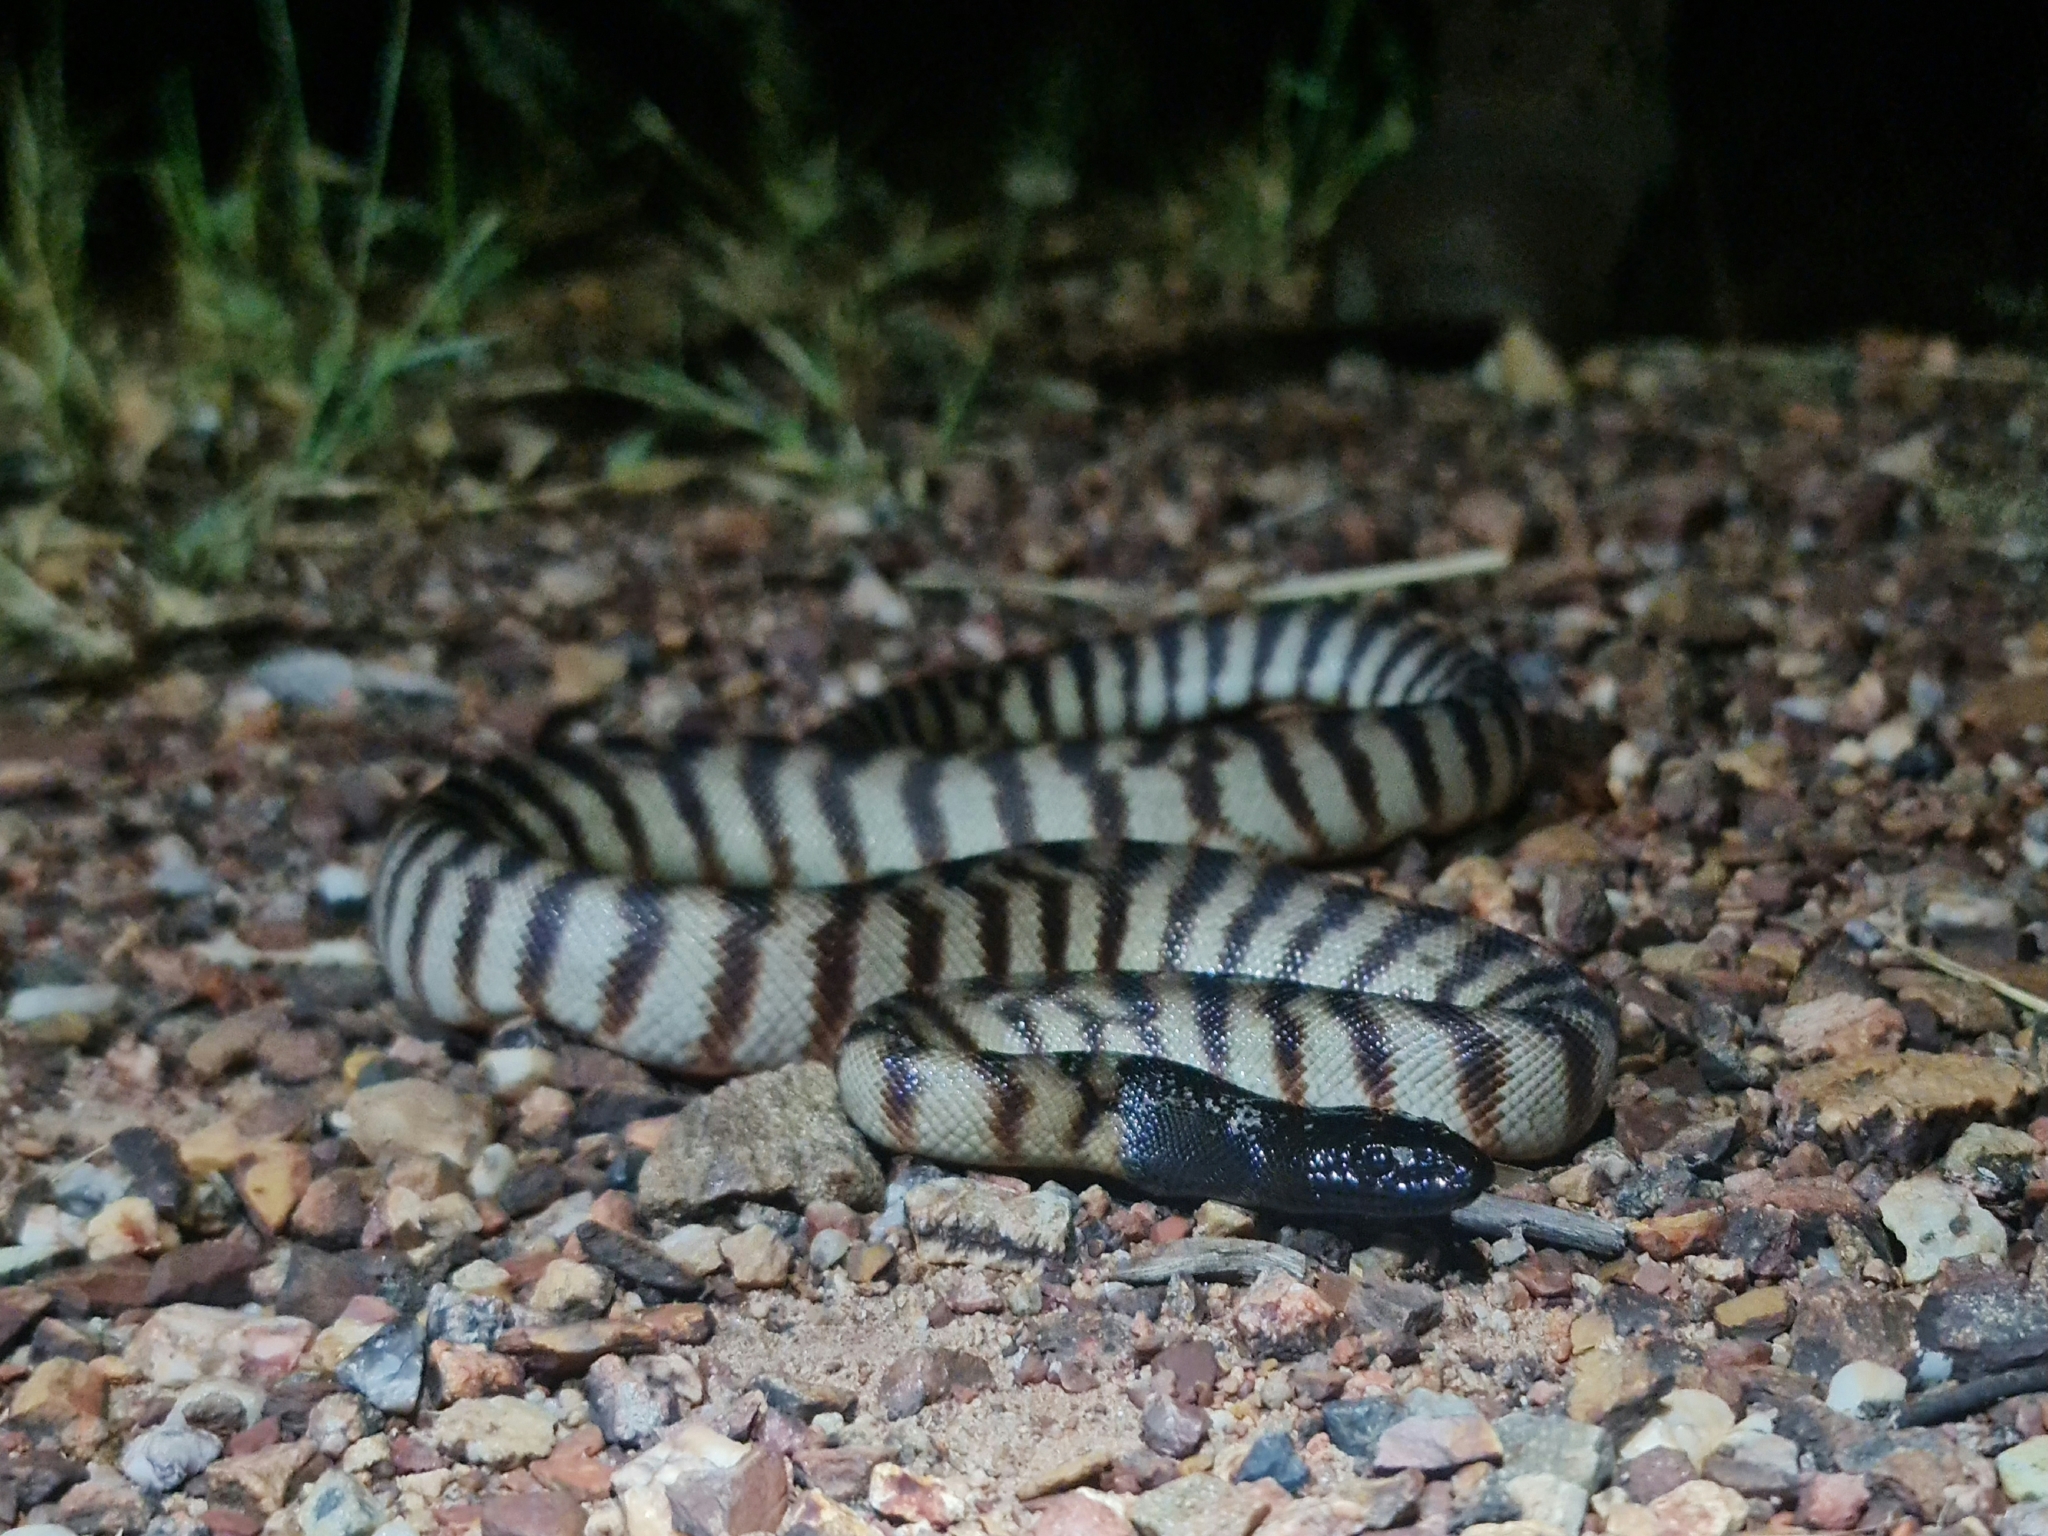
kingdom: Animalia
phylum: Chordata
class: Squamata
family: Pythonidae
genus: Aspidites
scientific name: Aspidites melanocephalus
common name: Black-headed python
